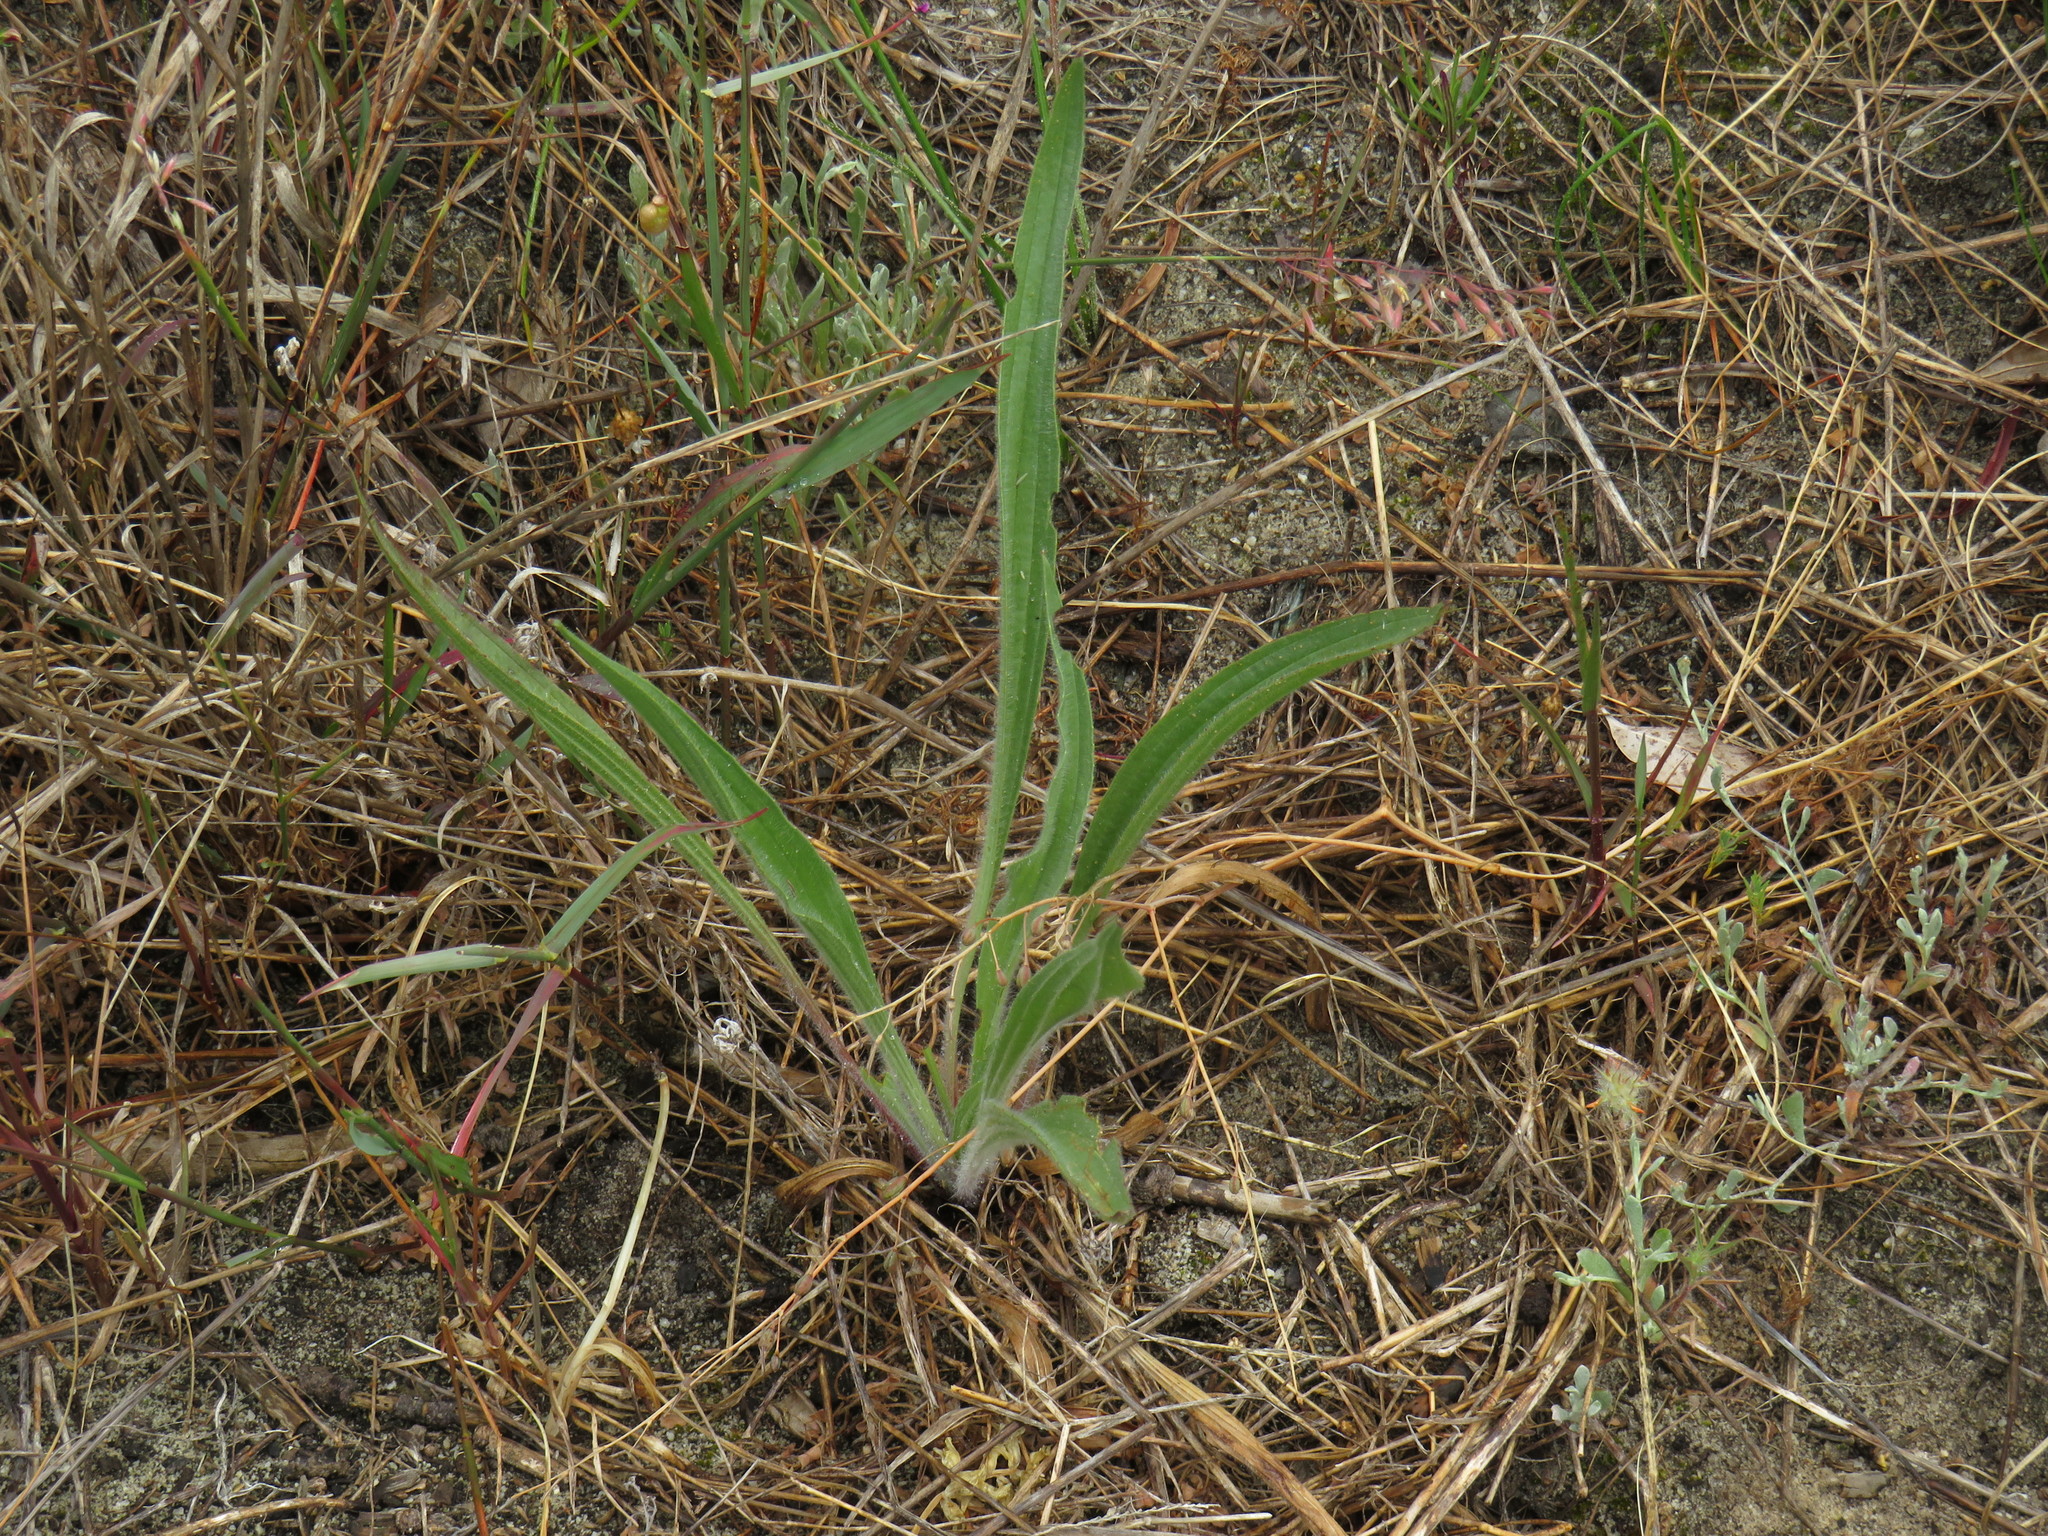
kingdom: Plantae
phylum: Tracheophyta
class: Magnoliopsida
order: Lamiales
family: Plantaginaceae
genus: Plantago
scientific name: Plantago lanceolata
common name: Ribwort plantain
